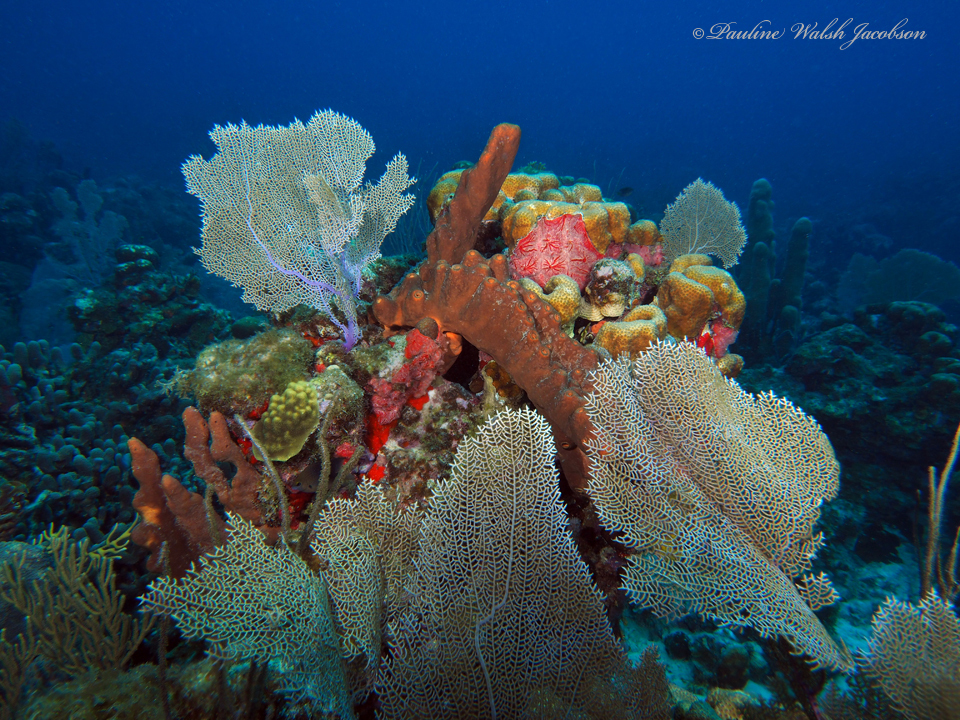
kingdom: Animalia
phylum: Cnidaria
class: Anthozoa
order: Malacalcyonacea
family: Gorgoniidae
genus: Gorgonia
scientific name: Gorgonia ventalina
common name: Common sea fan
